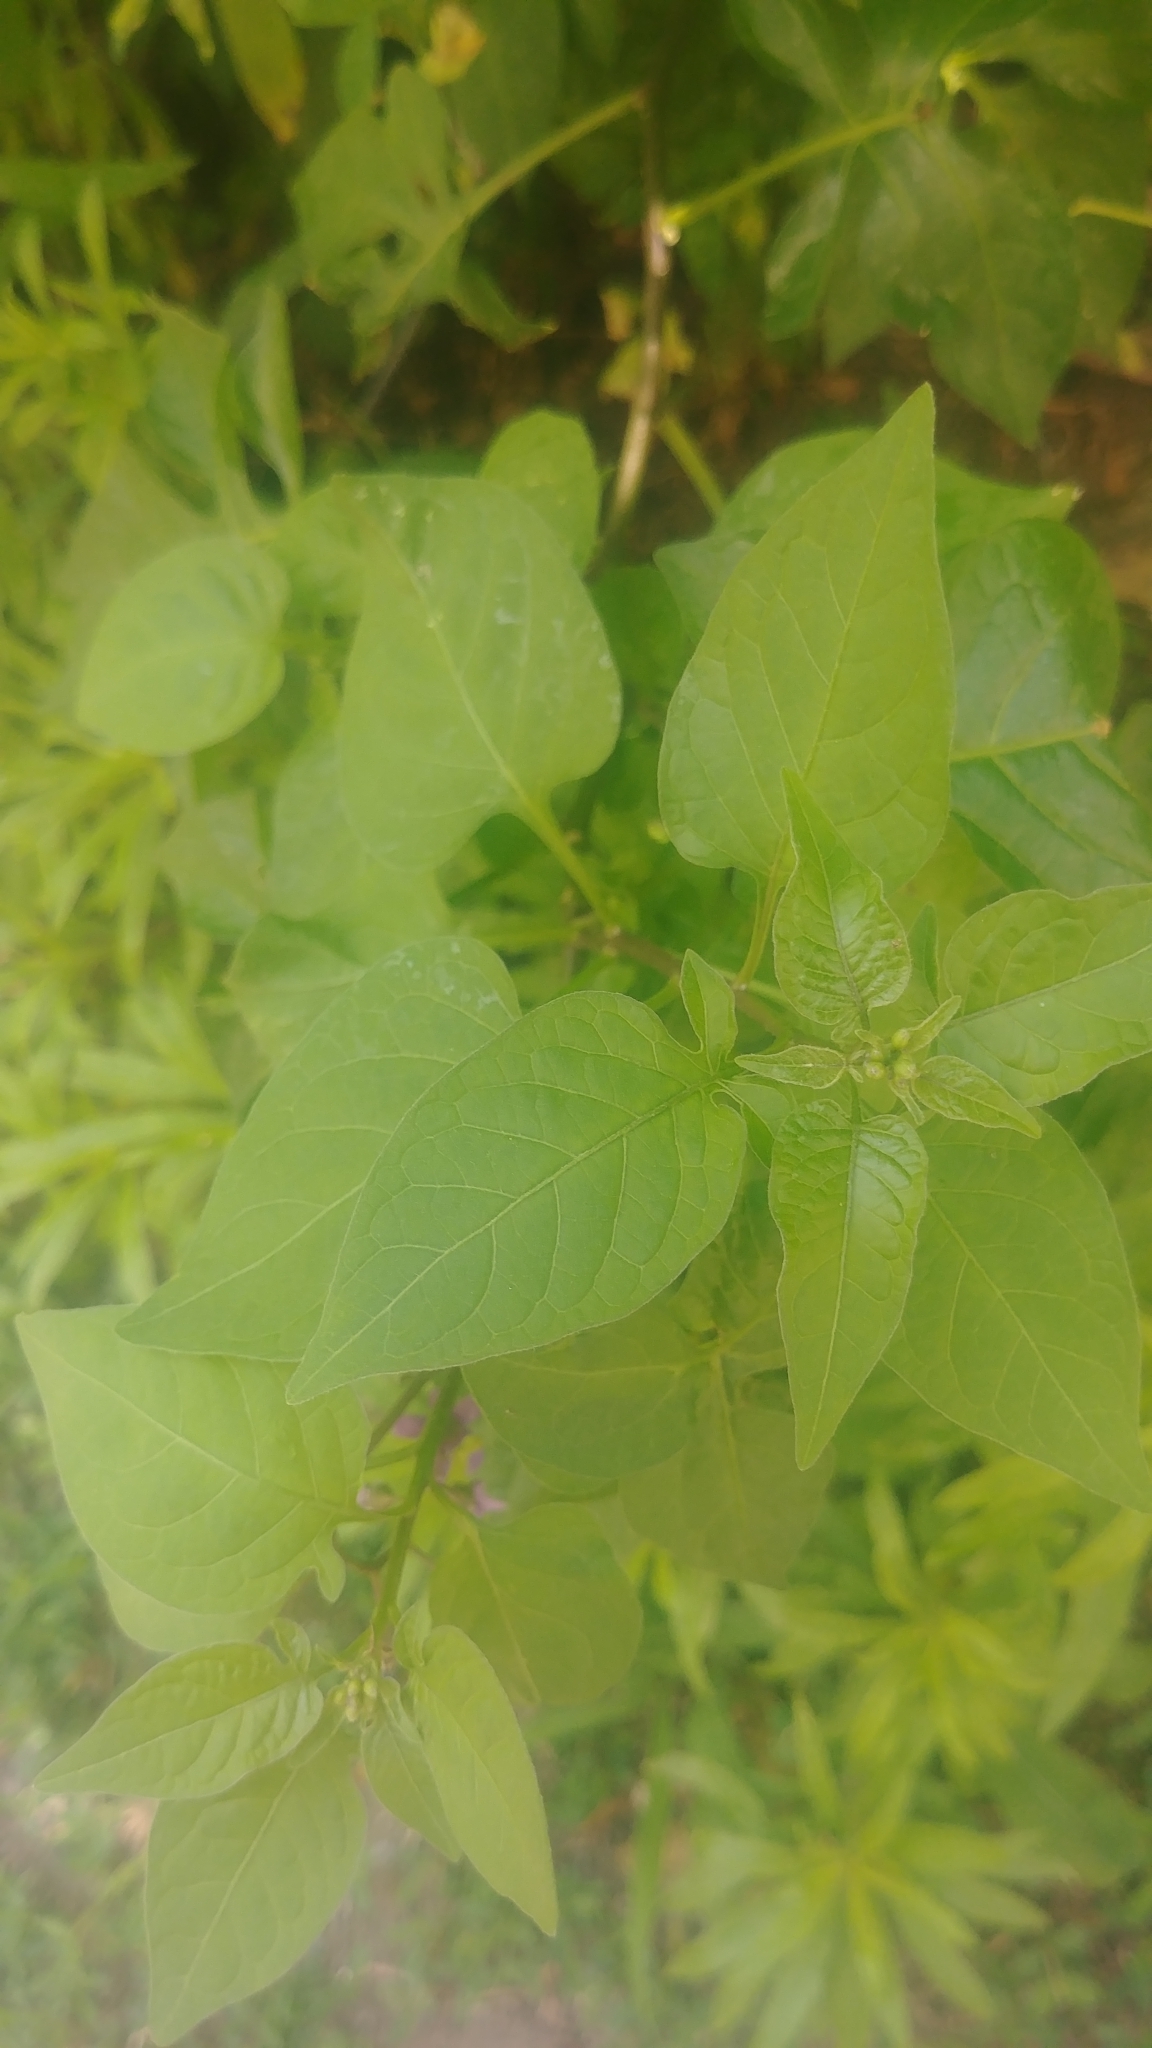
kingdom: Plantae
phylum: Tracheophyta
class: Magnoliopsida
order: Solanales
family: Solanaceae
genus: Solanum
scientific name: Solanum dulcamara
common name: Climbing nightshade
